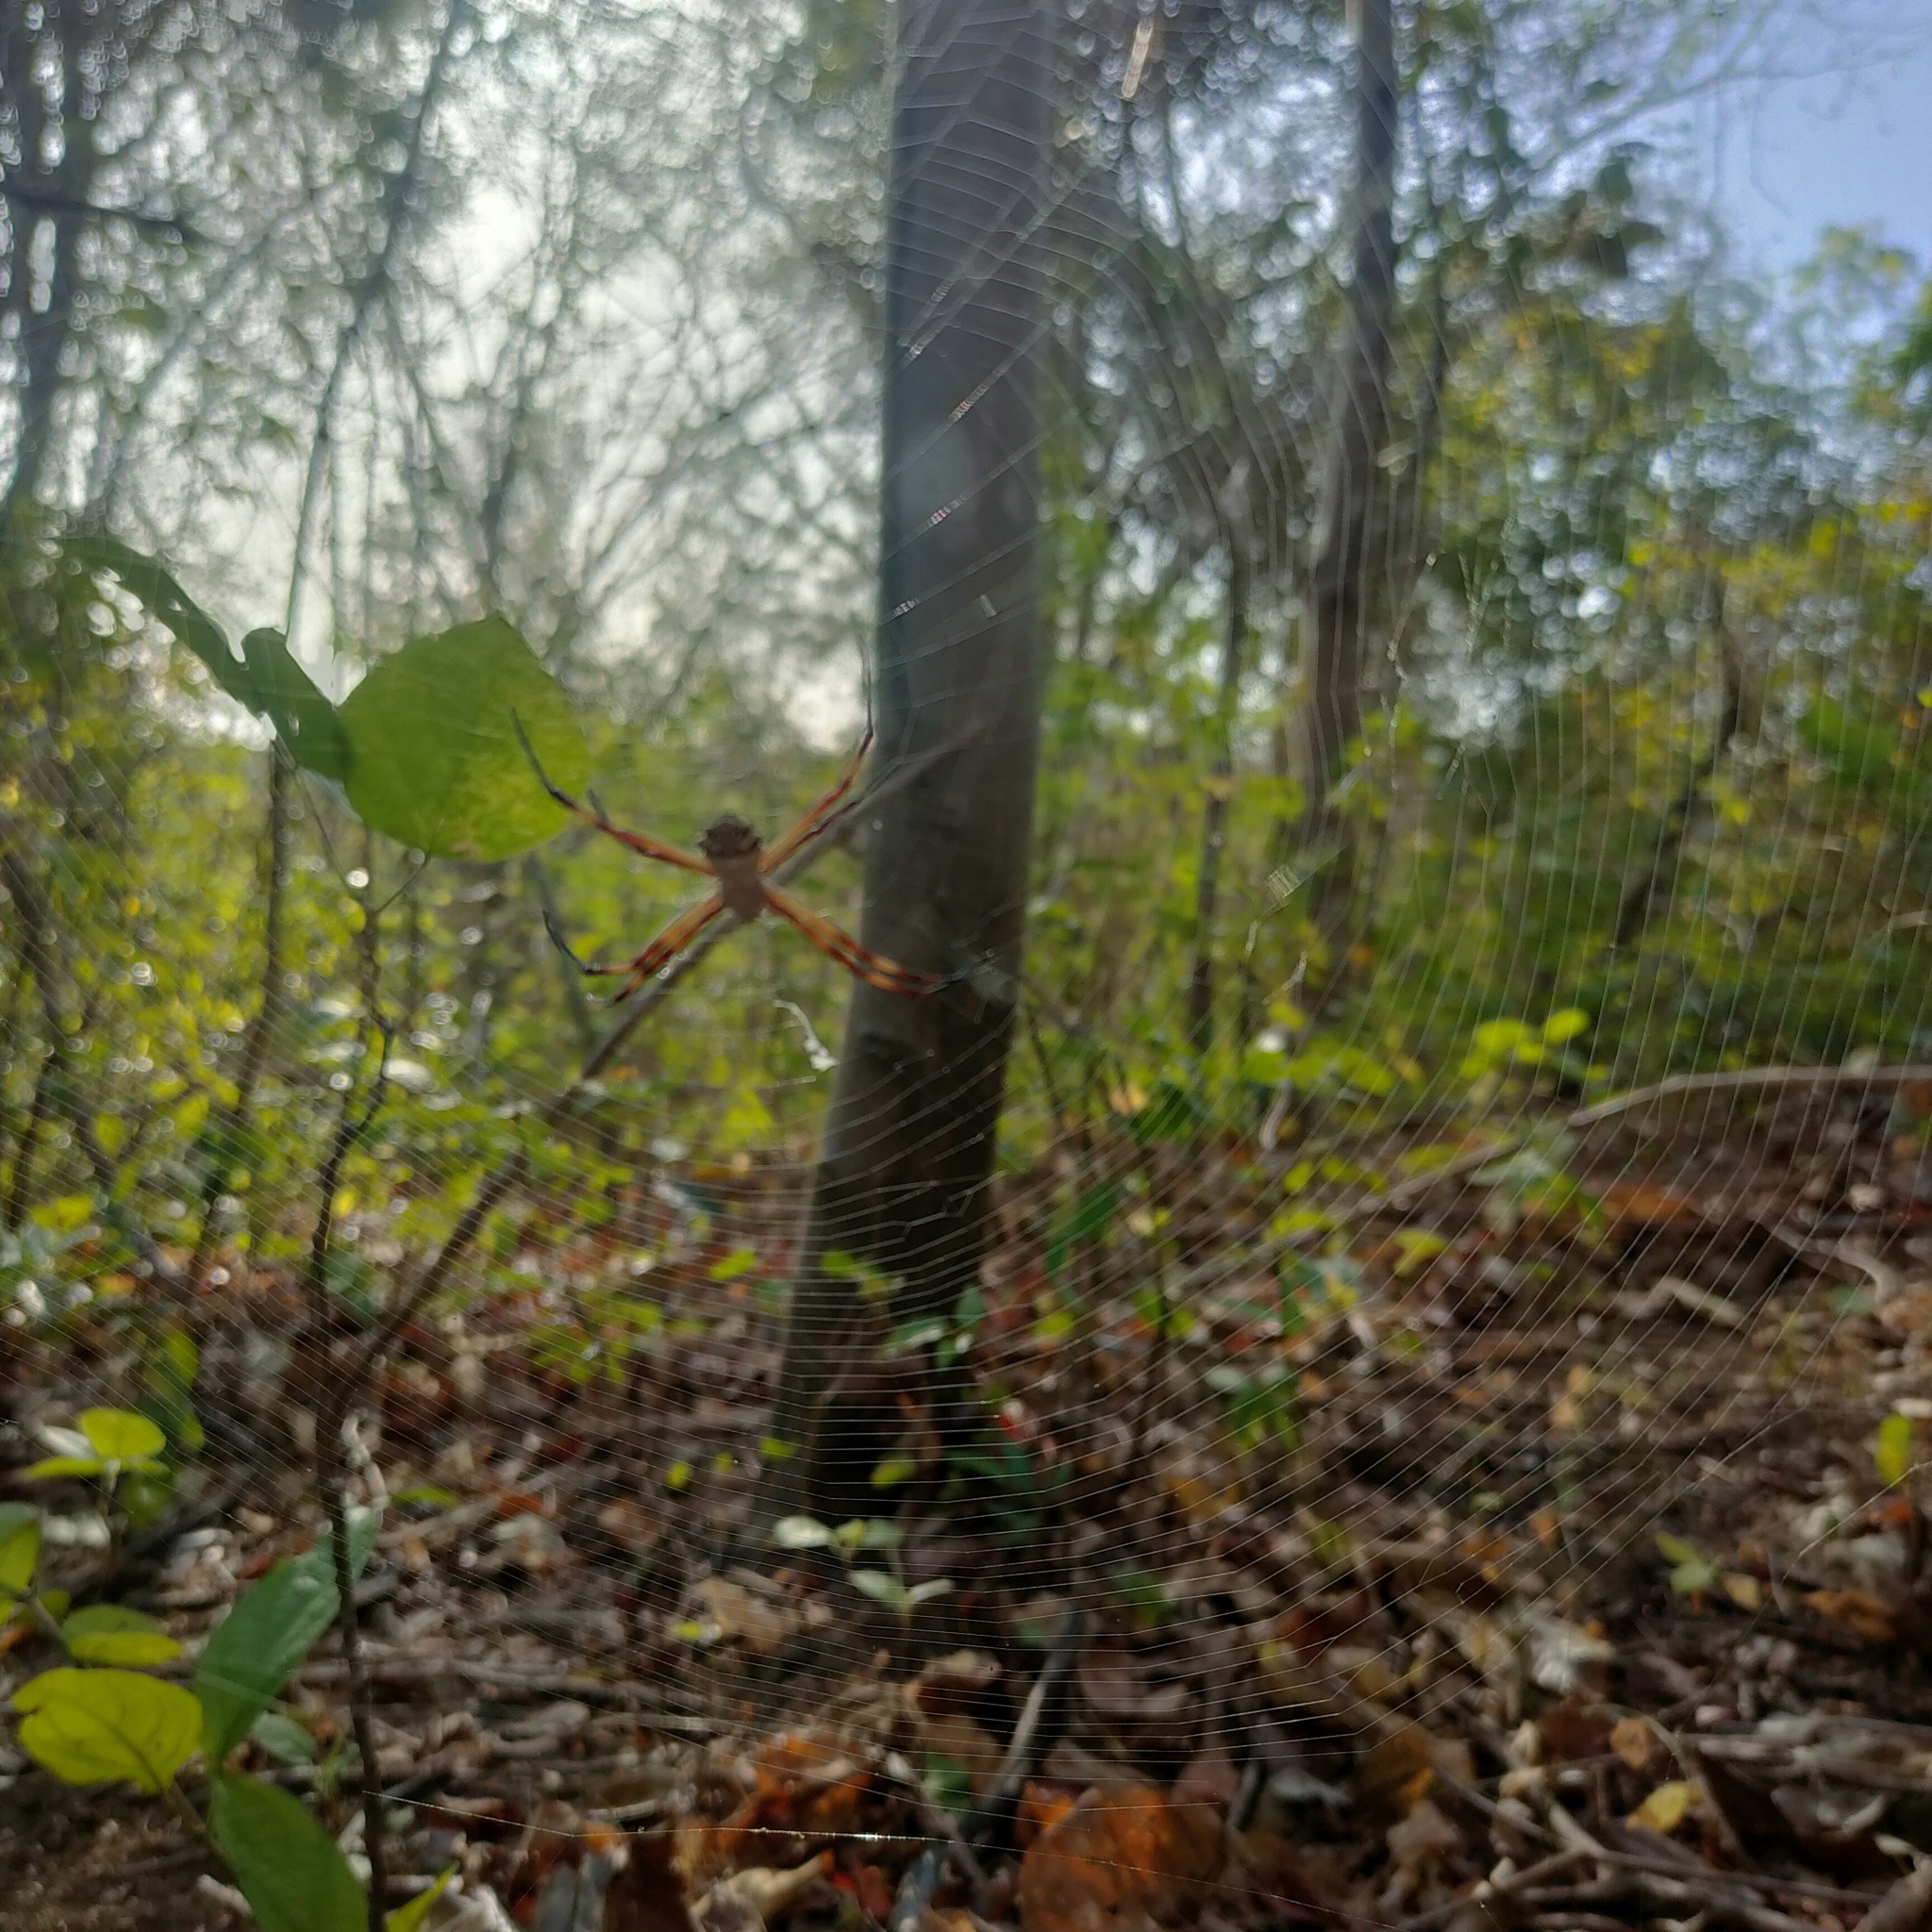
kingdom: Animalia
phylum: Arthropoda
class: Arachnida
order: Araneae
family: Araneidae
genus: Argiope
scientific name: Argiope argentata
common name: Orb weavers
